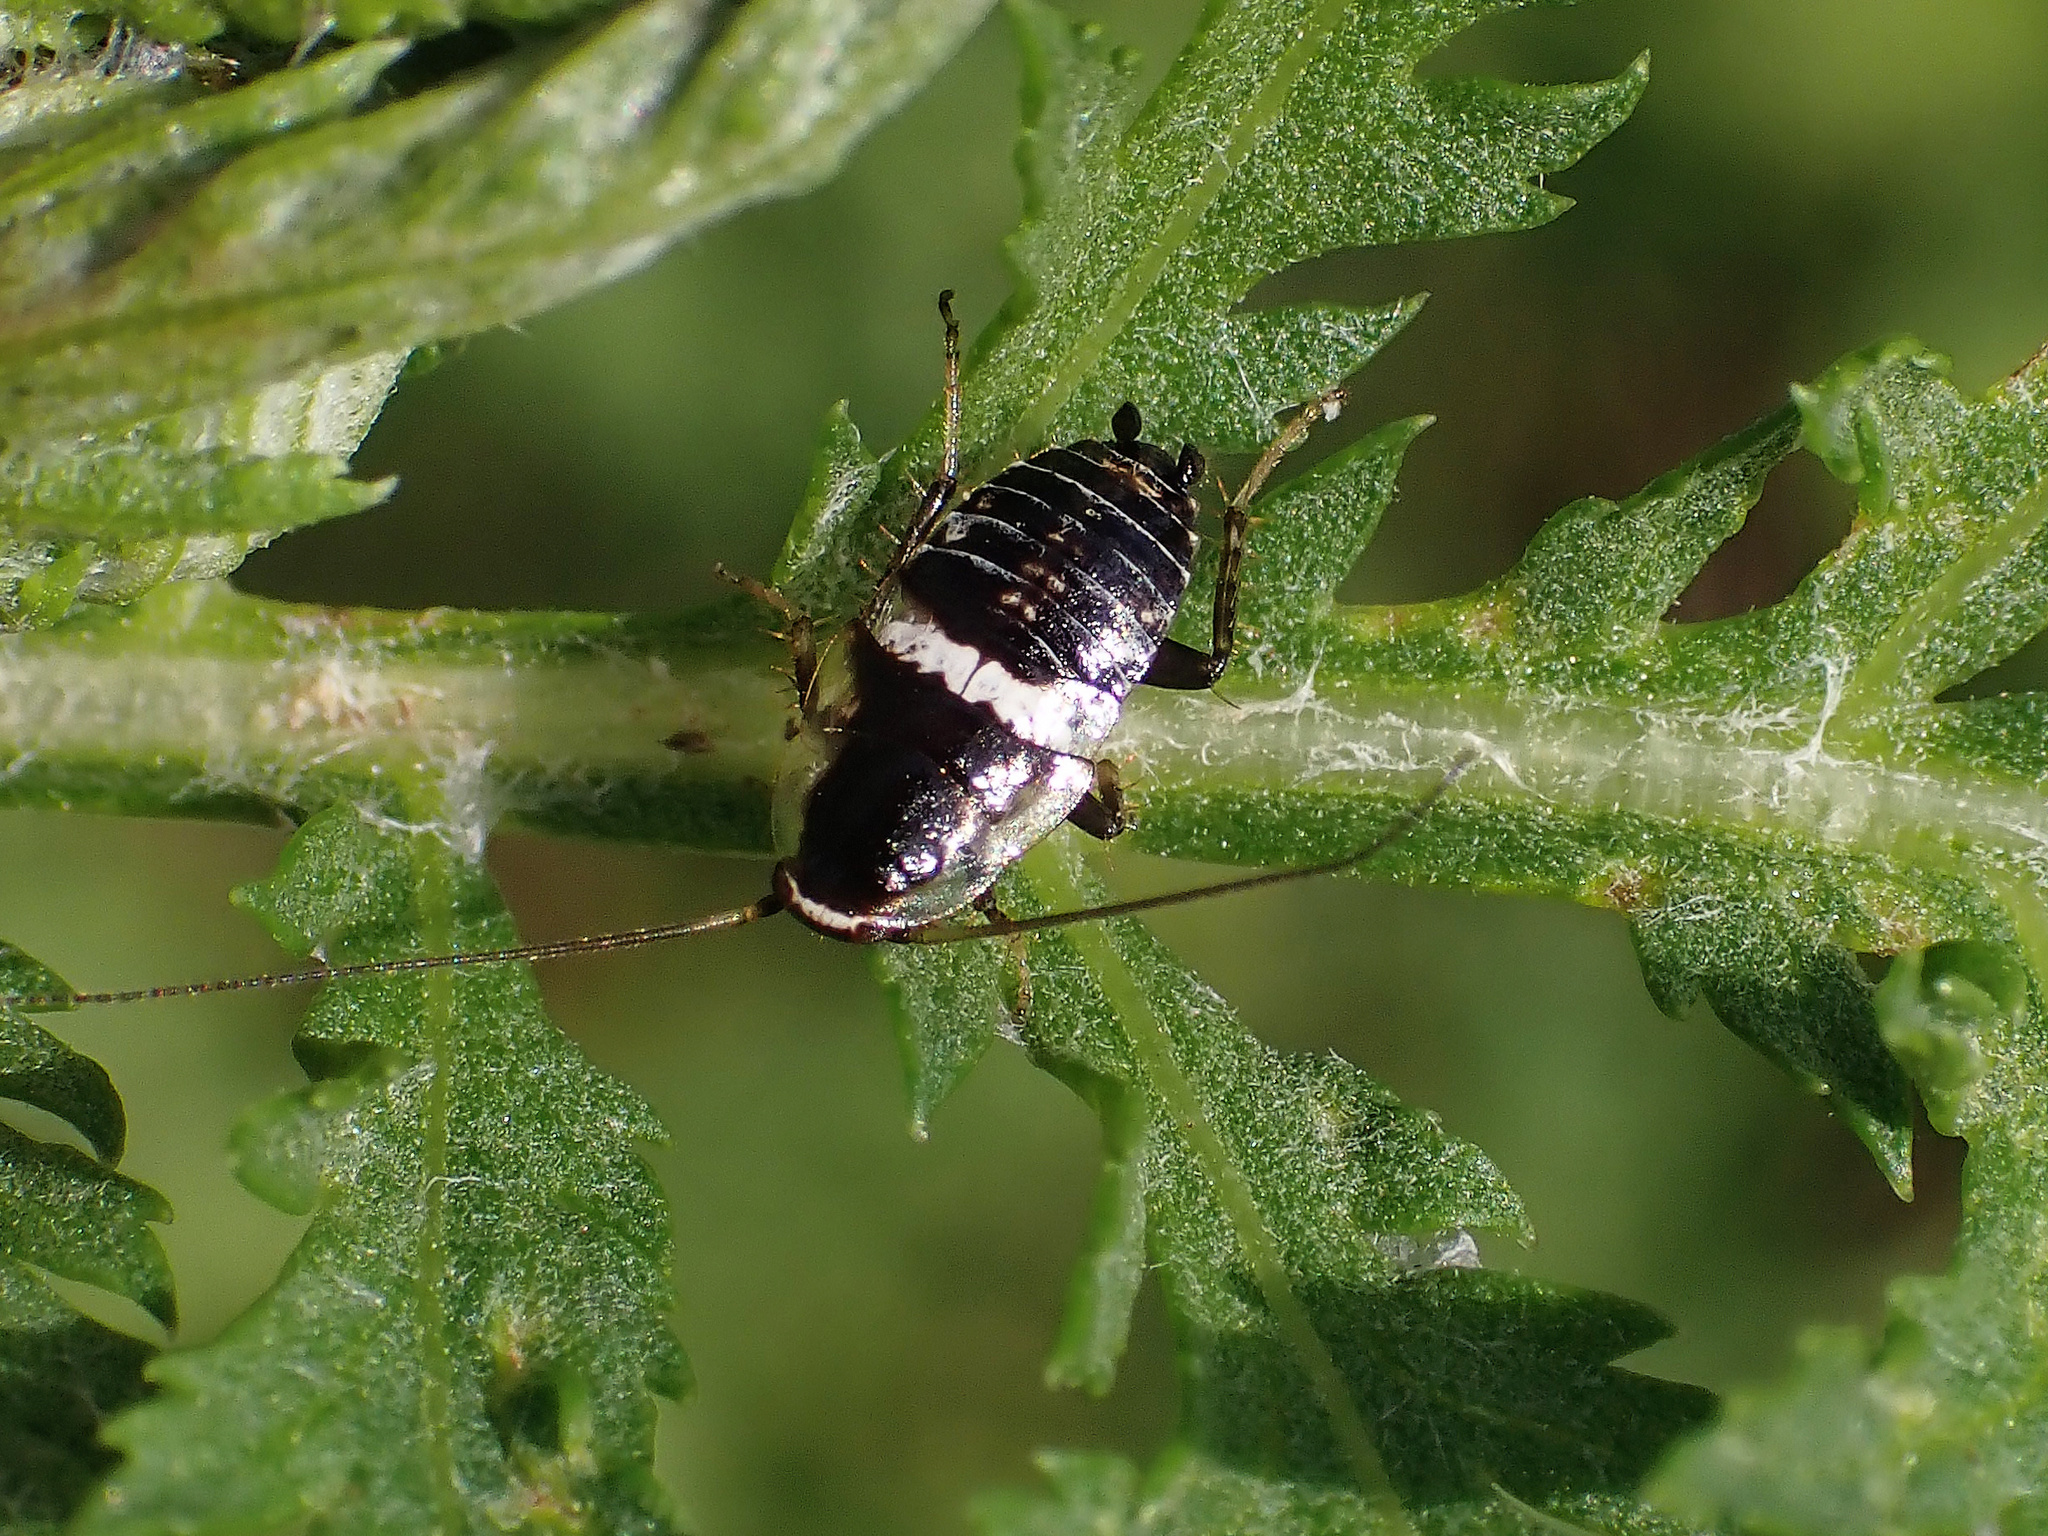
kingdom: Animalia
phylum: Arthropoda
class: Insecta
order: Blattodea
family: Ectobiidae
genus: Planuncus
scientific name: Planuncus vinzi
